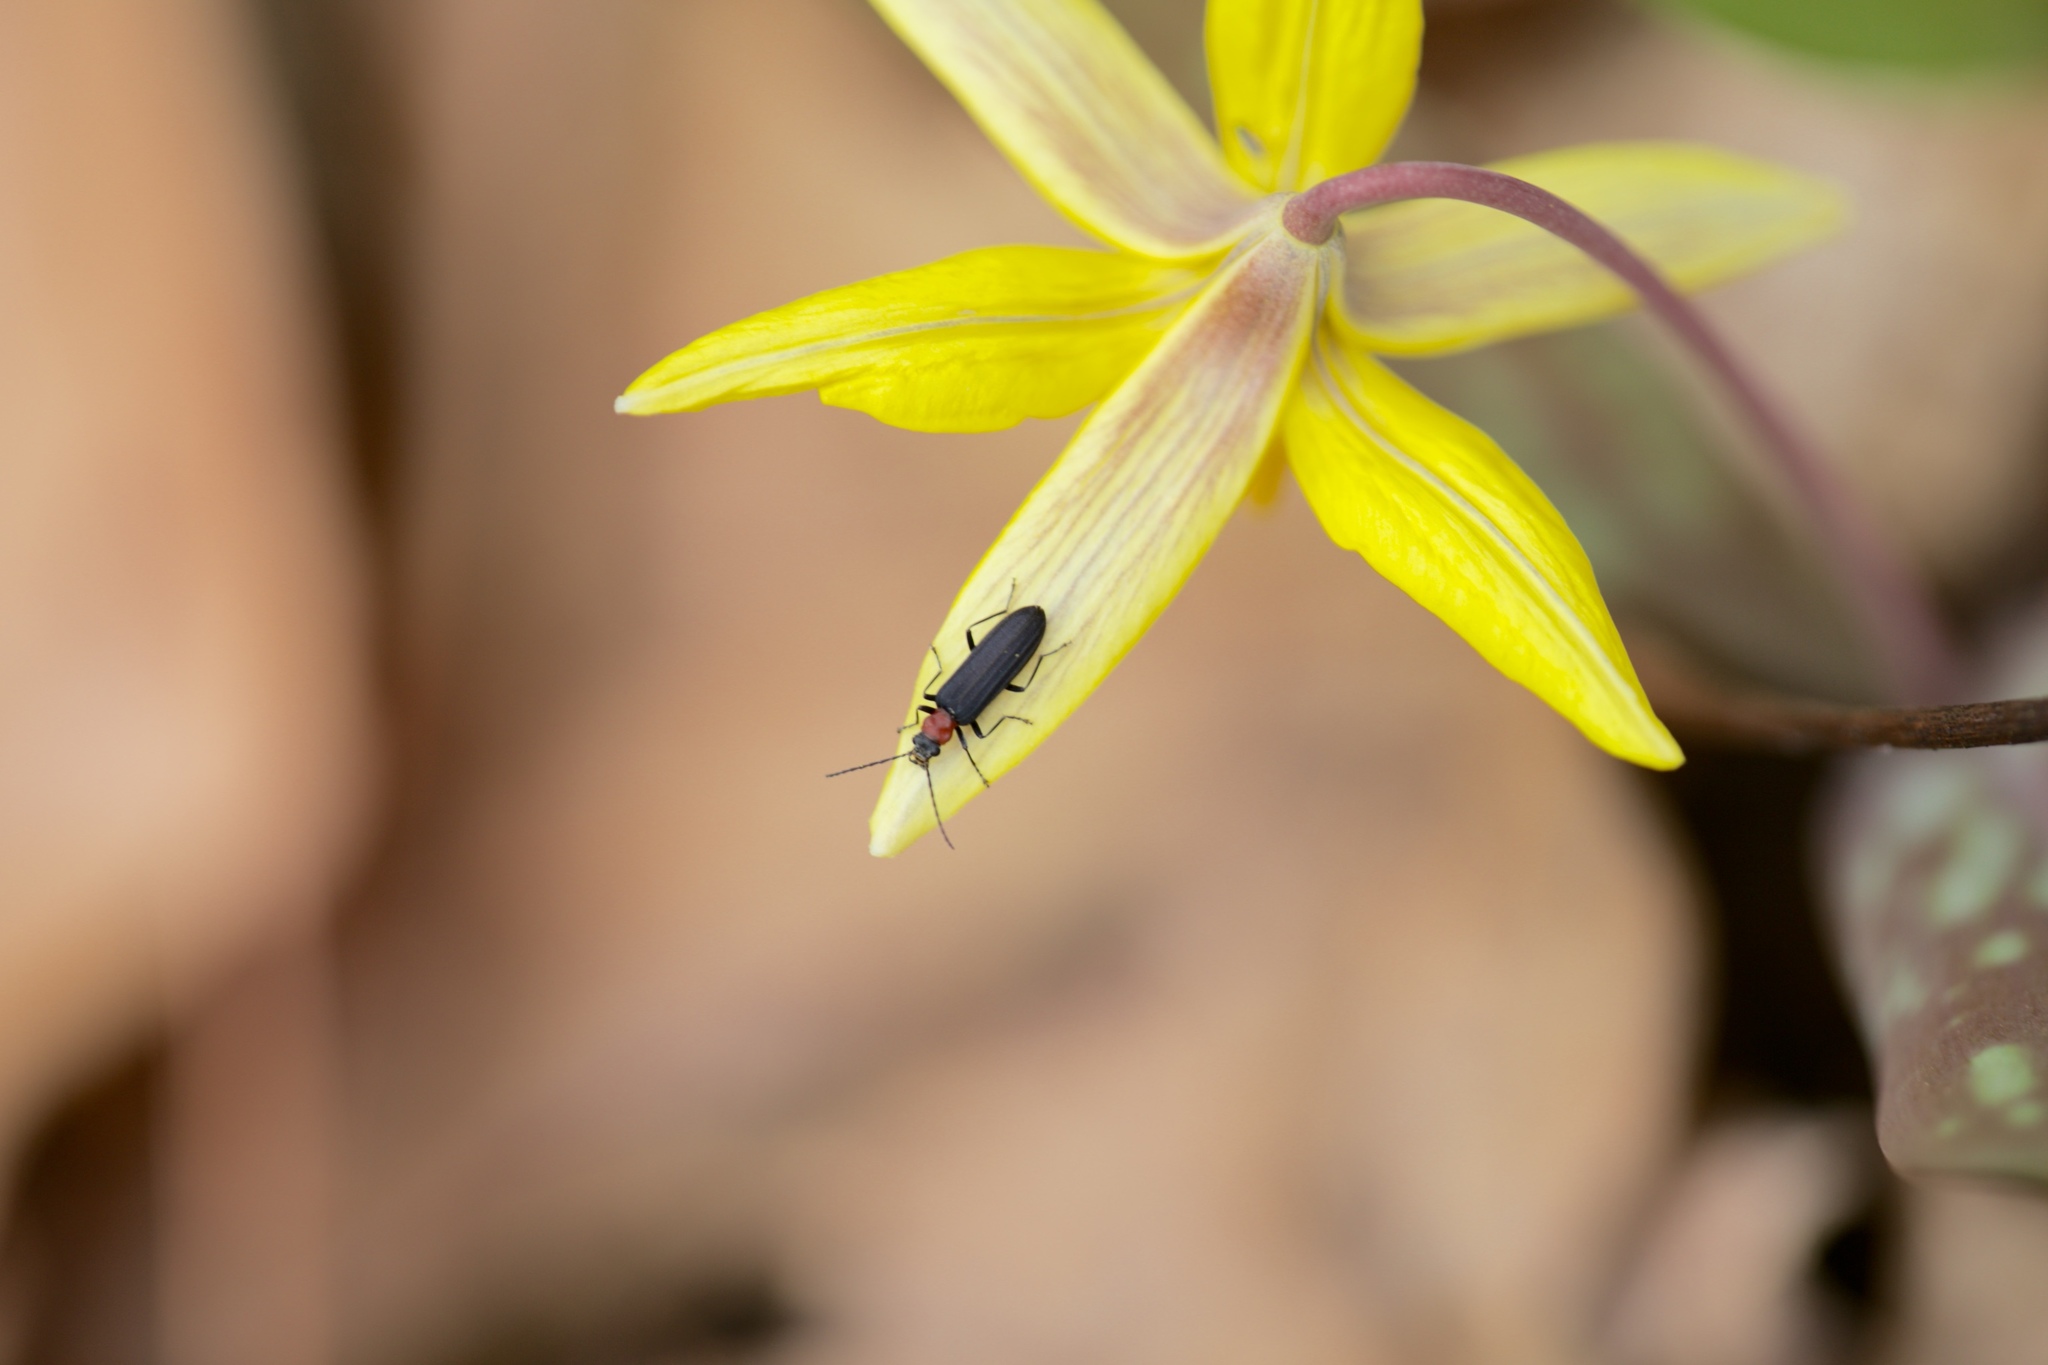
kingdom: Animalia
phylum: Arthropoda
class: Insecta
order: Coleoptera
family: Oedemeridae
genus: Ischnomera
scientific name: Ischnomera
